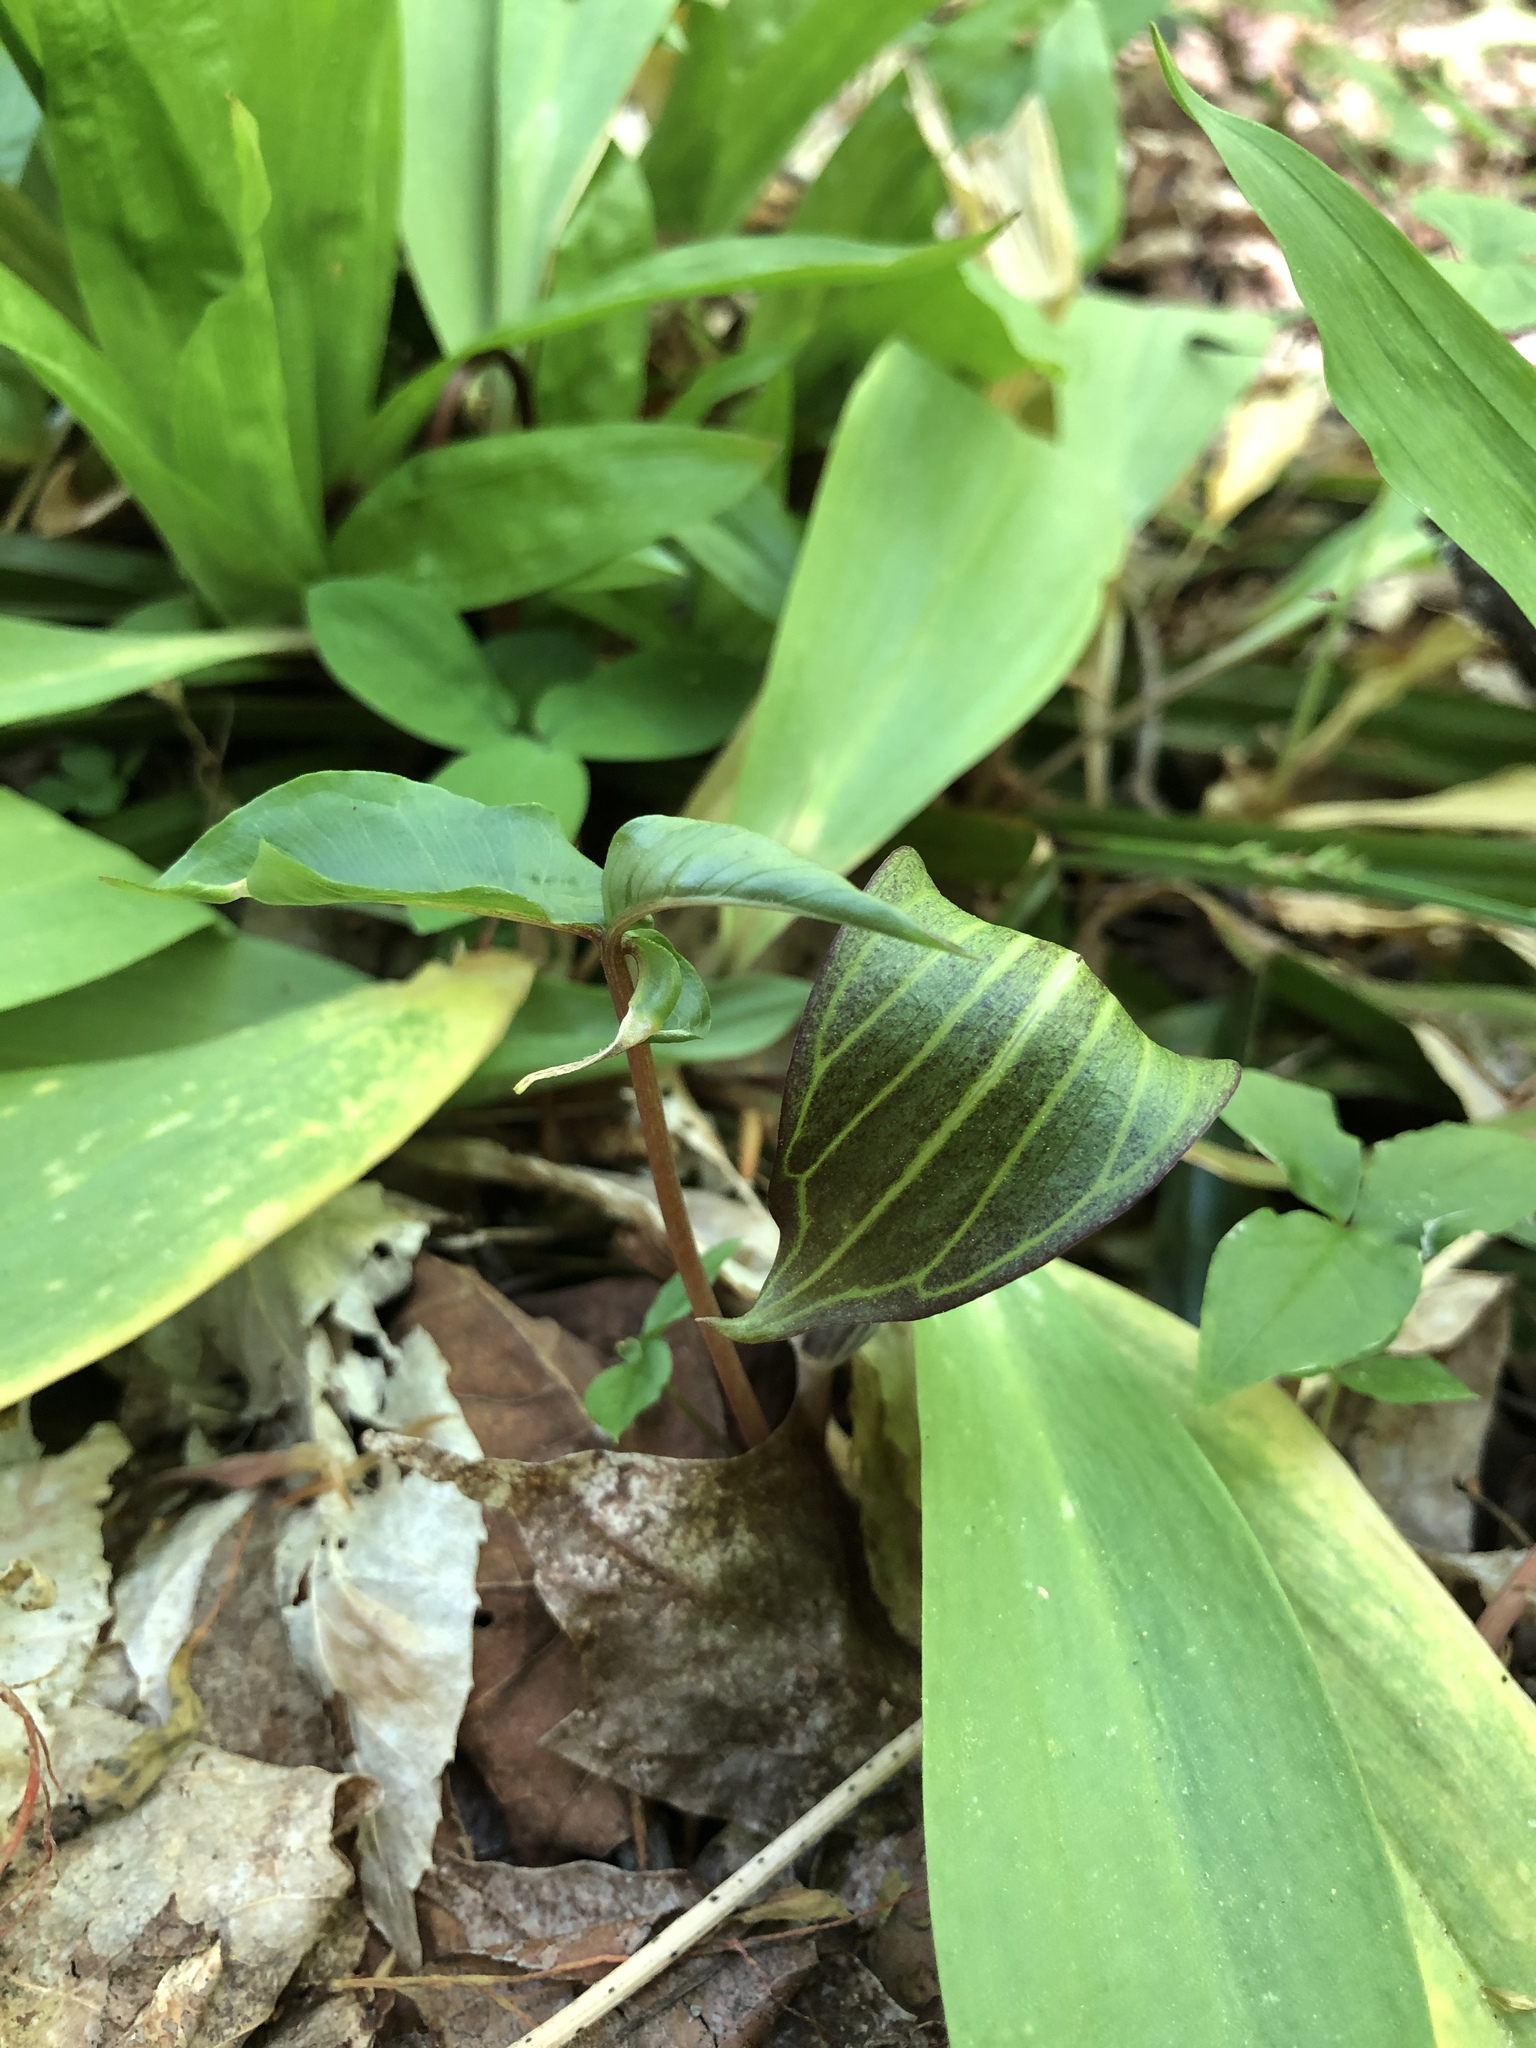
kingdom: Plantae
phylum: Tracheophyta
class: Liliopsida
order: Alismatales
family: Araceae
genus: Arisaema
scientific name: Arisaema triphyllum
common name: Jack-in-the-pulpit
